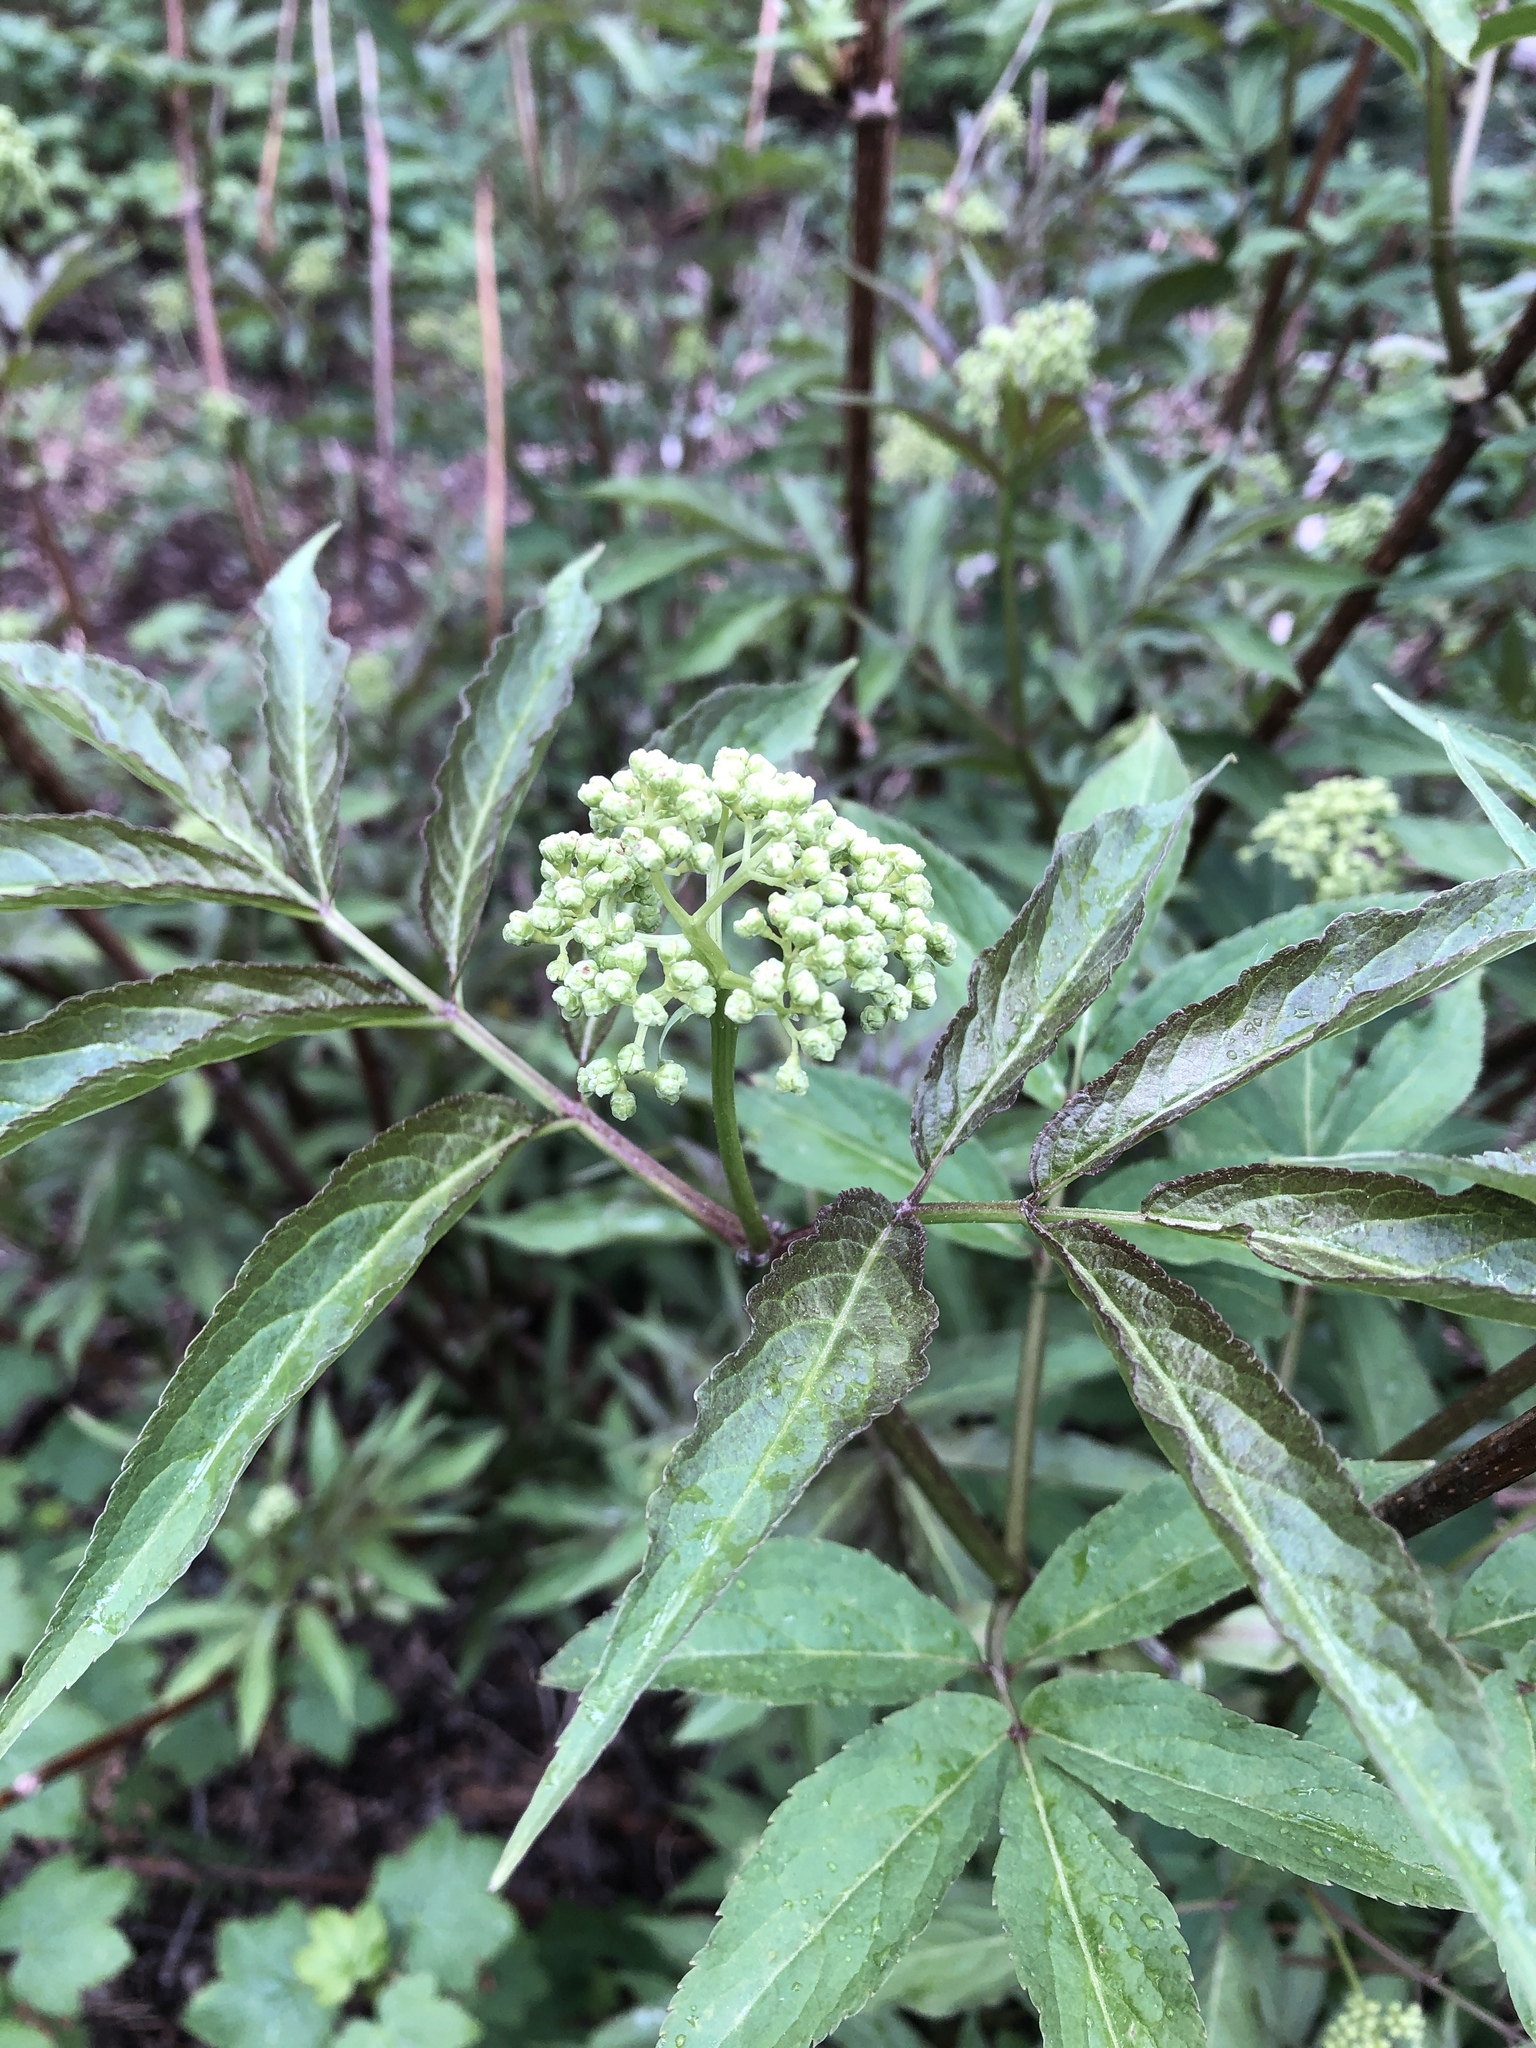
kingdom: Plantae
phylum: Tracheophyta
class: Magnoliopsida
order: Dipsacales
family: Viburnaceae
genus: Sambucus
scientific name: Sambucus racemosa
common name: Red-berried elder
